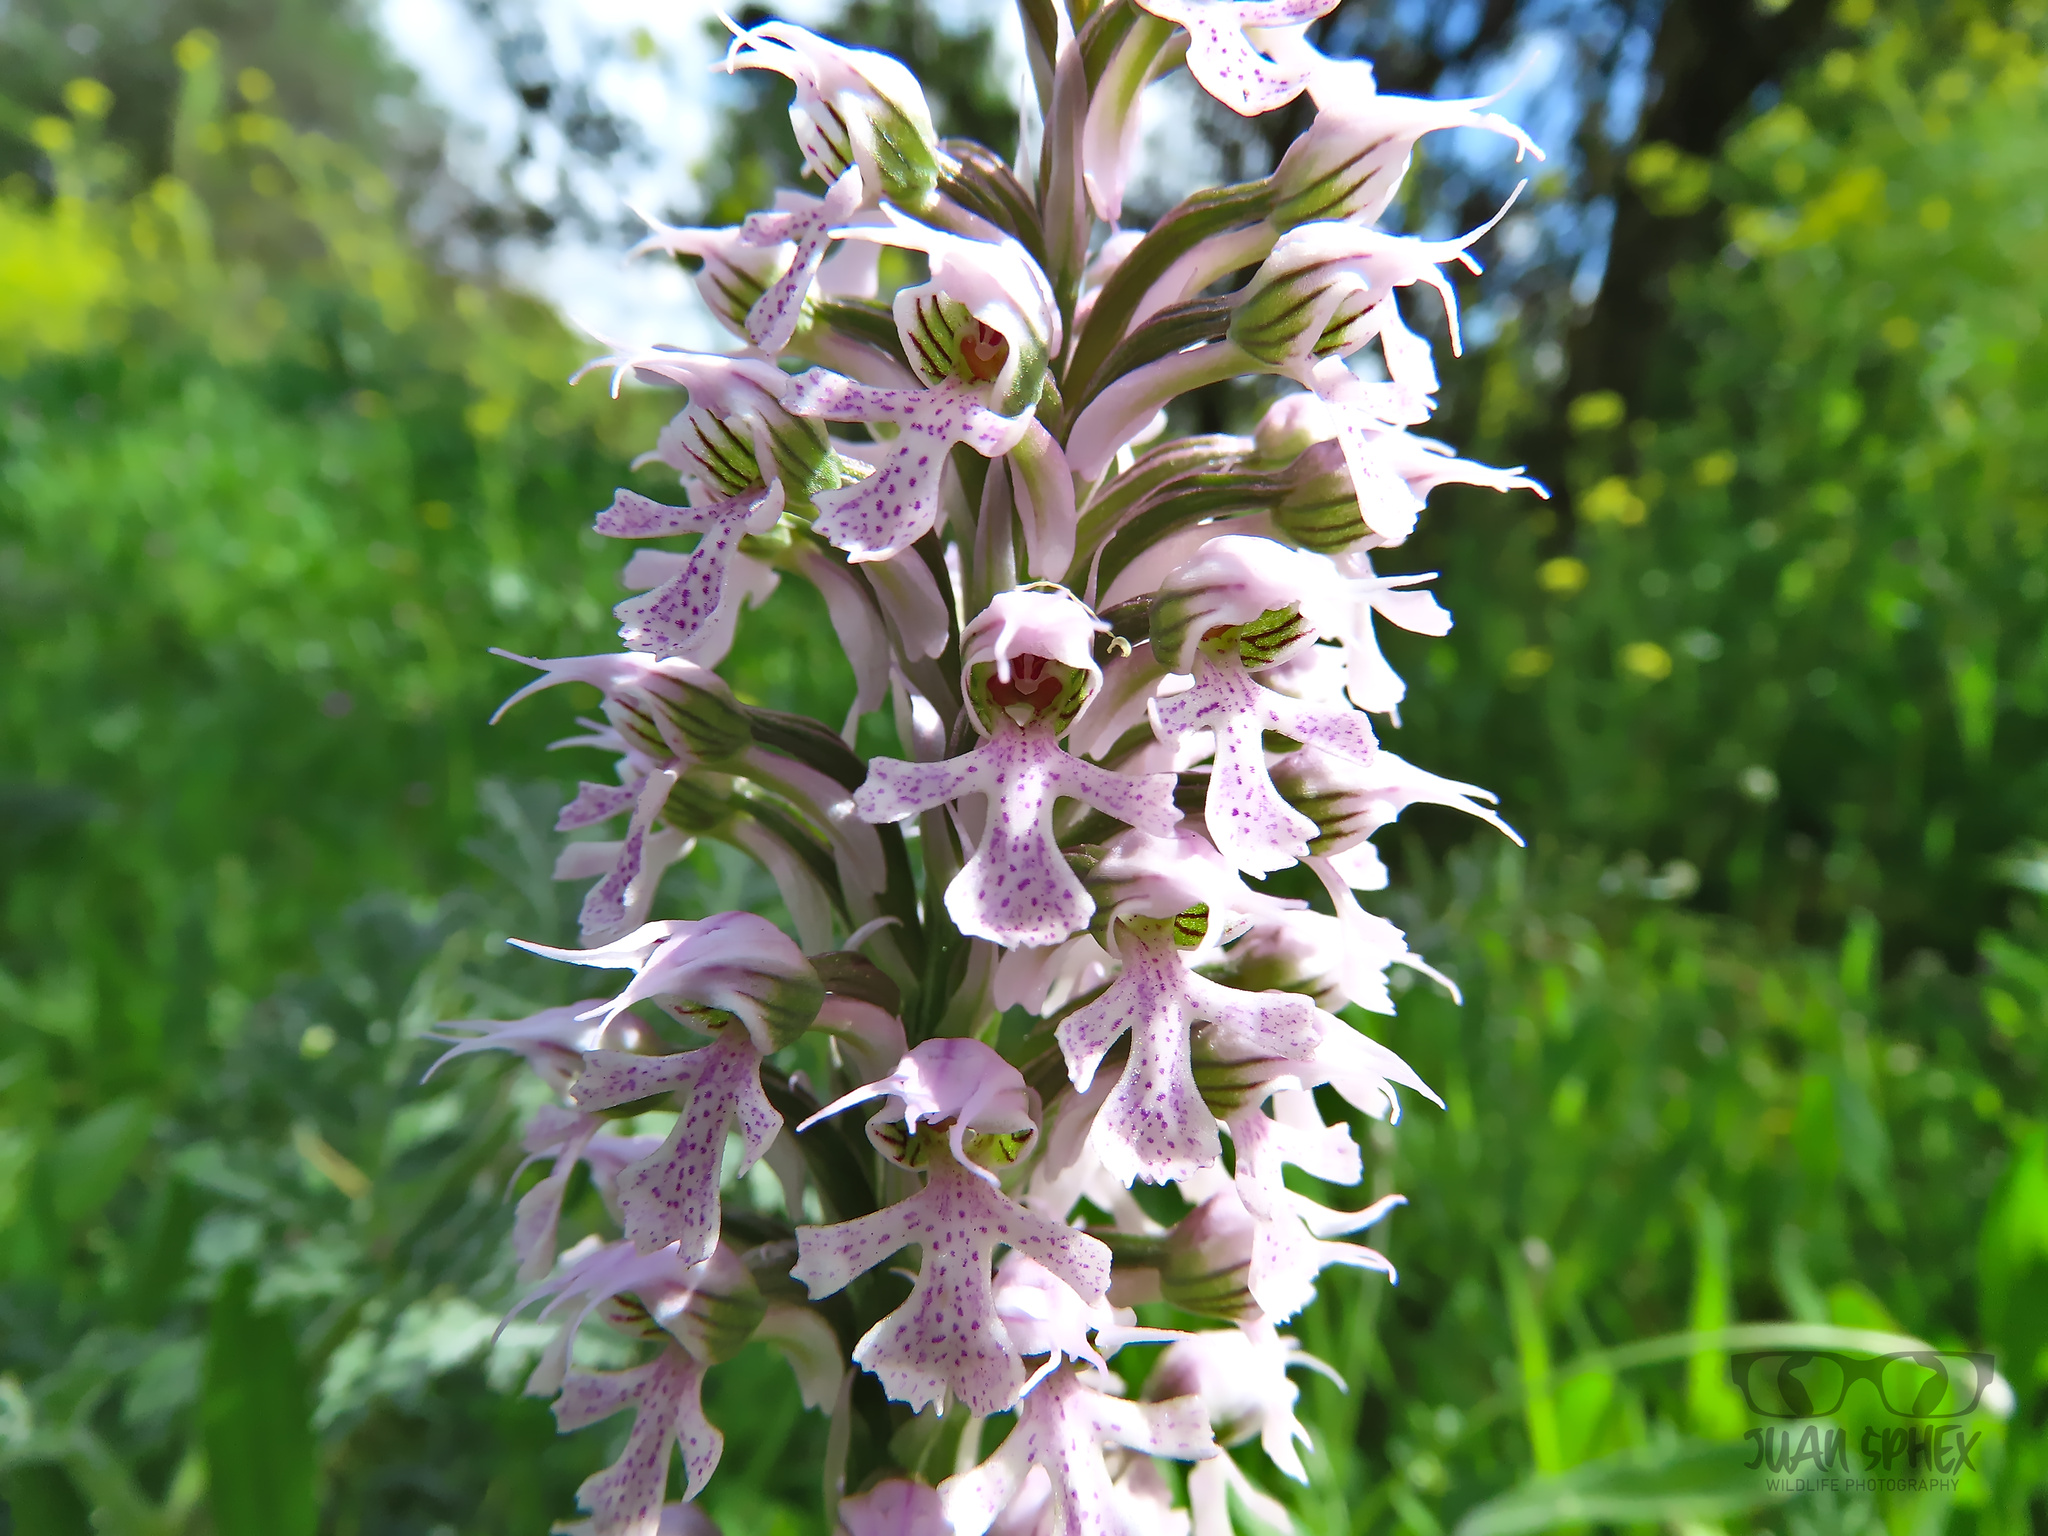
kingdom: Plantae
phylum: Tracheophyta
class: Liliopsida
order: Asparagales
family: Orchidaceae
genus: Neotinea
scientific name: Neotinea conica
